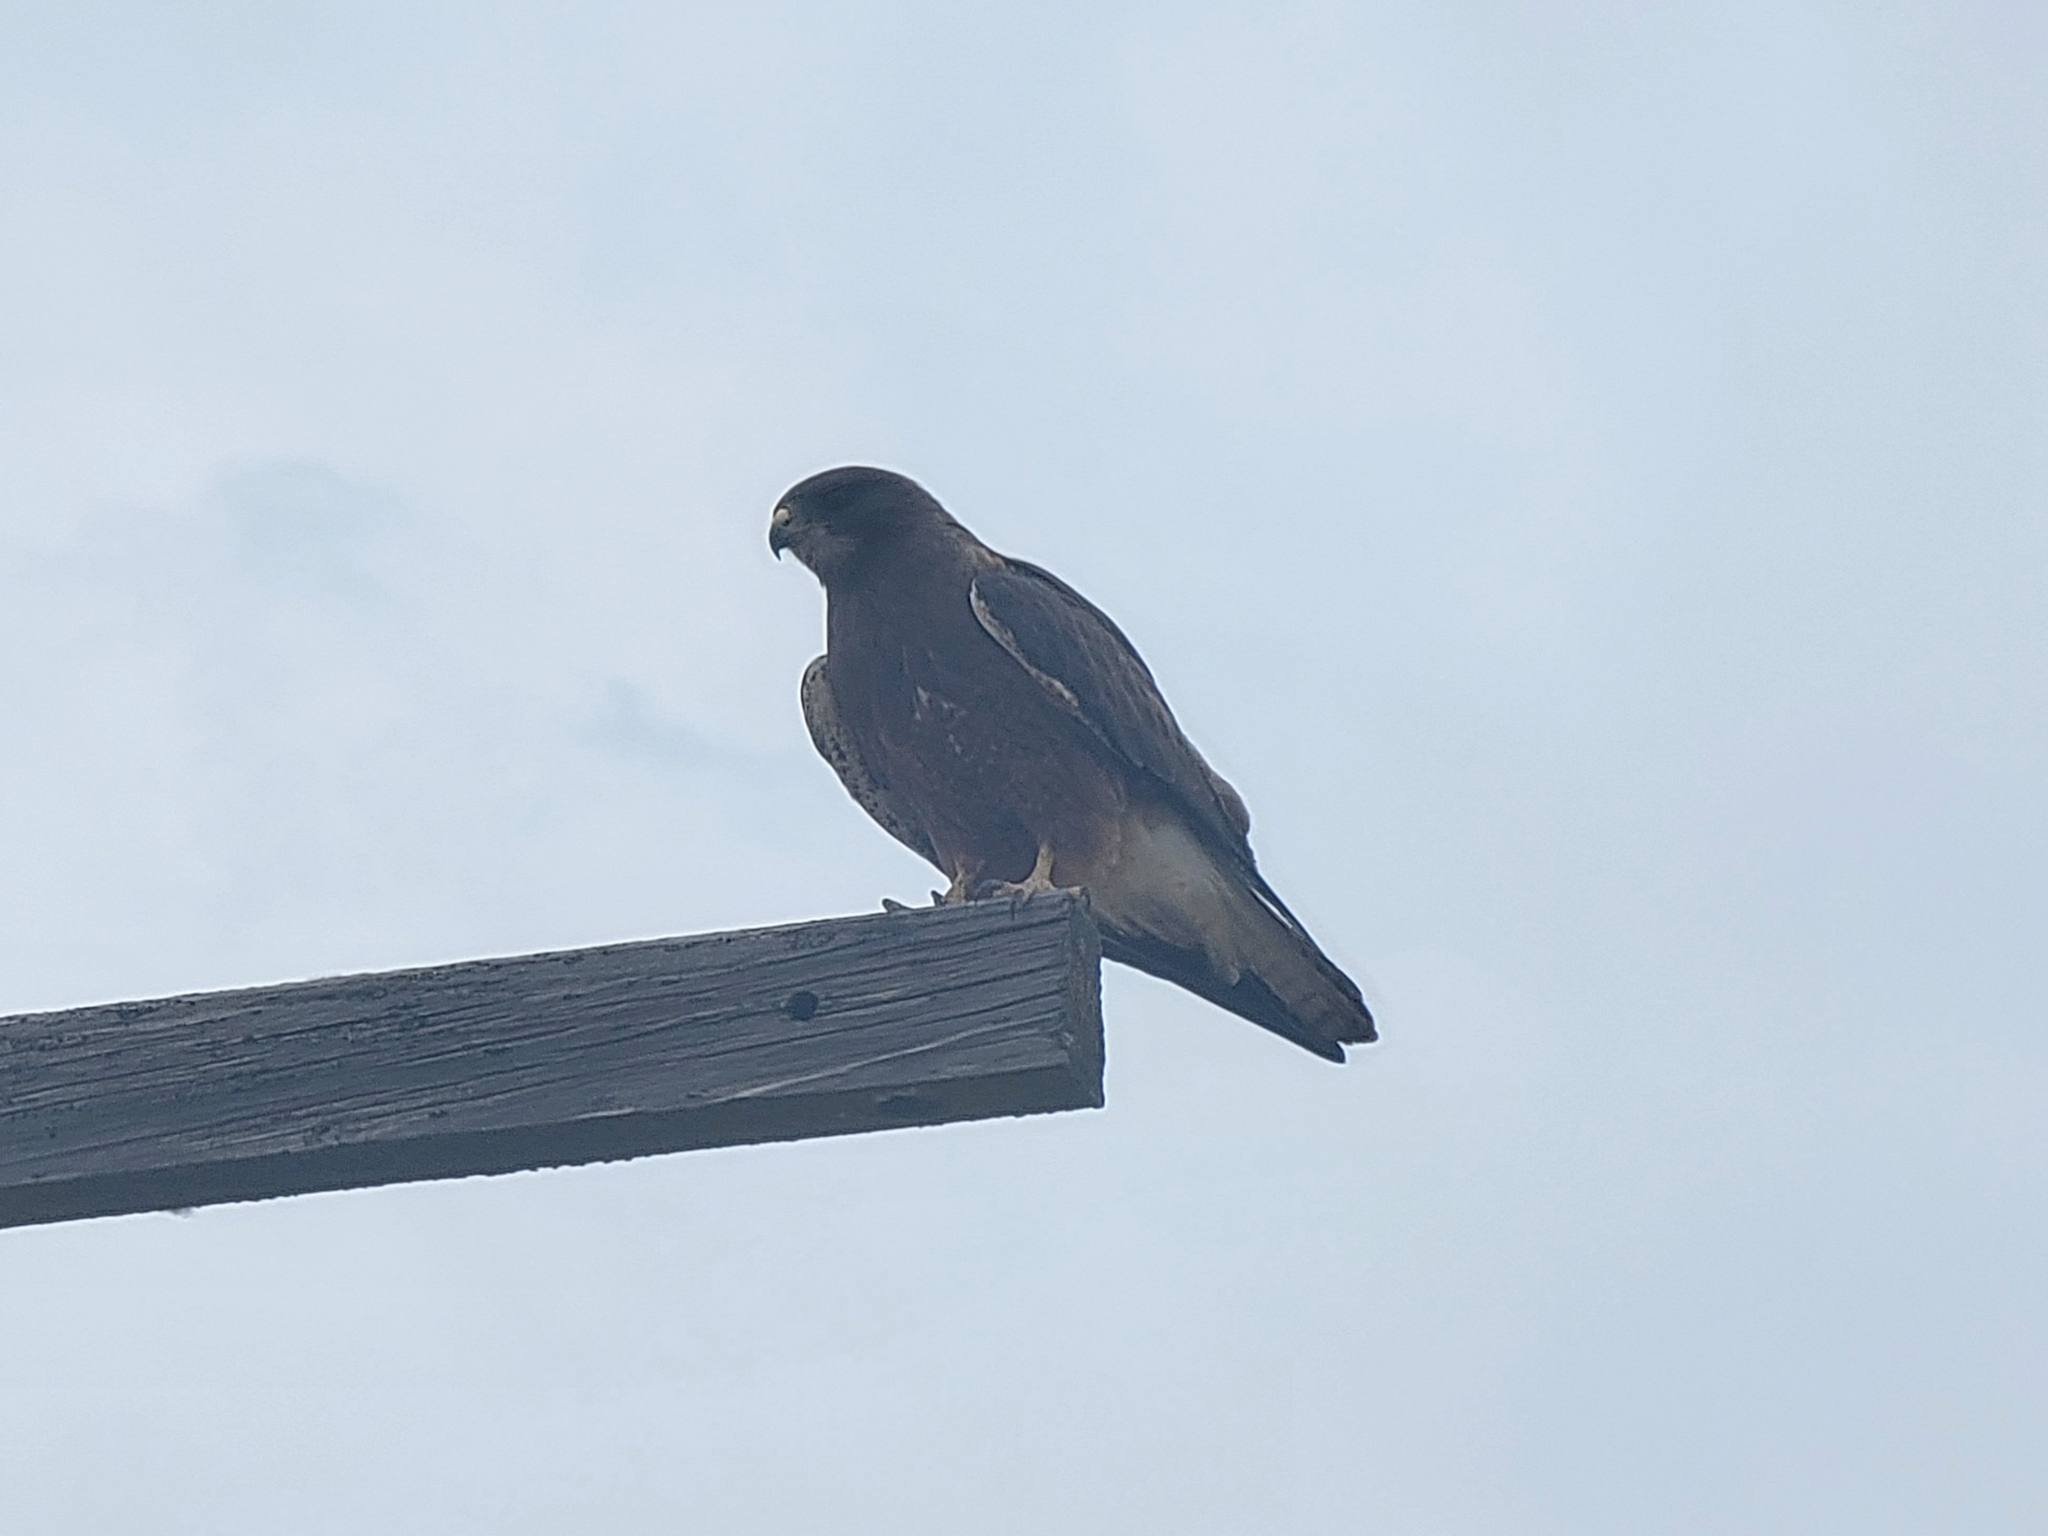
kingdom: Animalia
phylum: Chordata
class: Aves
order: Accipitriformes
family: Accipitridae
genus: Buteo
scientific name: Buteo swainsoni
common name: Swainson's hawk
